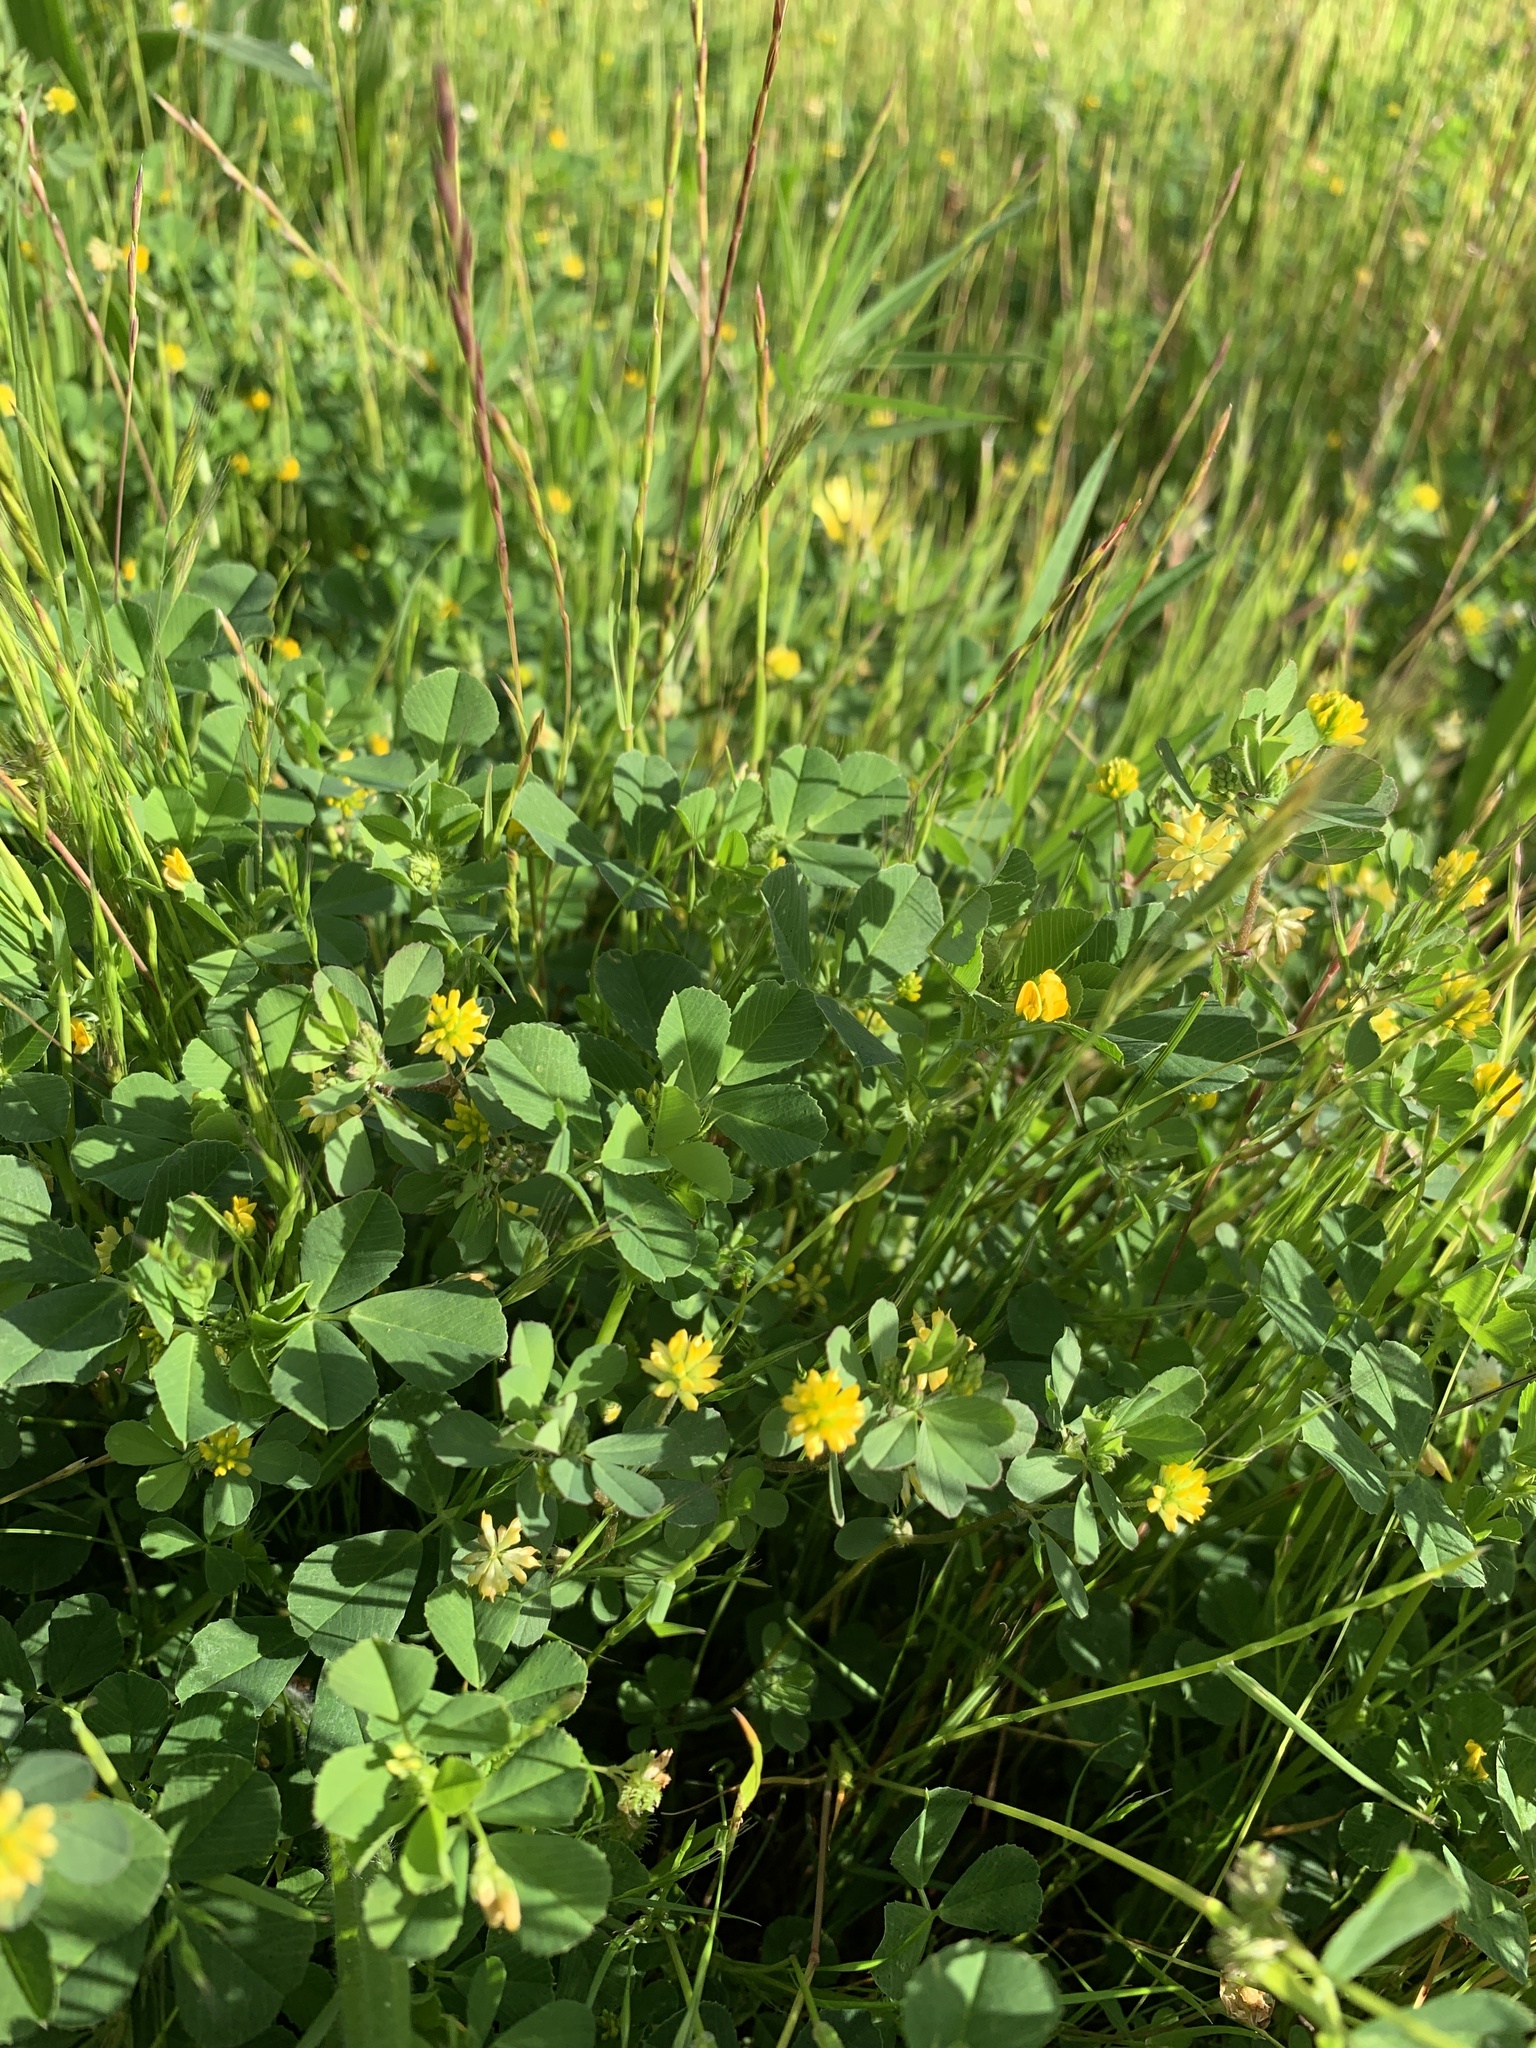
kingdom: Plantae
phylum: Tracheophyta
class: Magnoliopsida
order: Fabales
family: Fabaceae
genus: Medicago
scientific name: Medicago polymorpha
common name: Burclover
